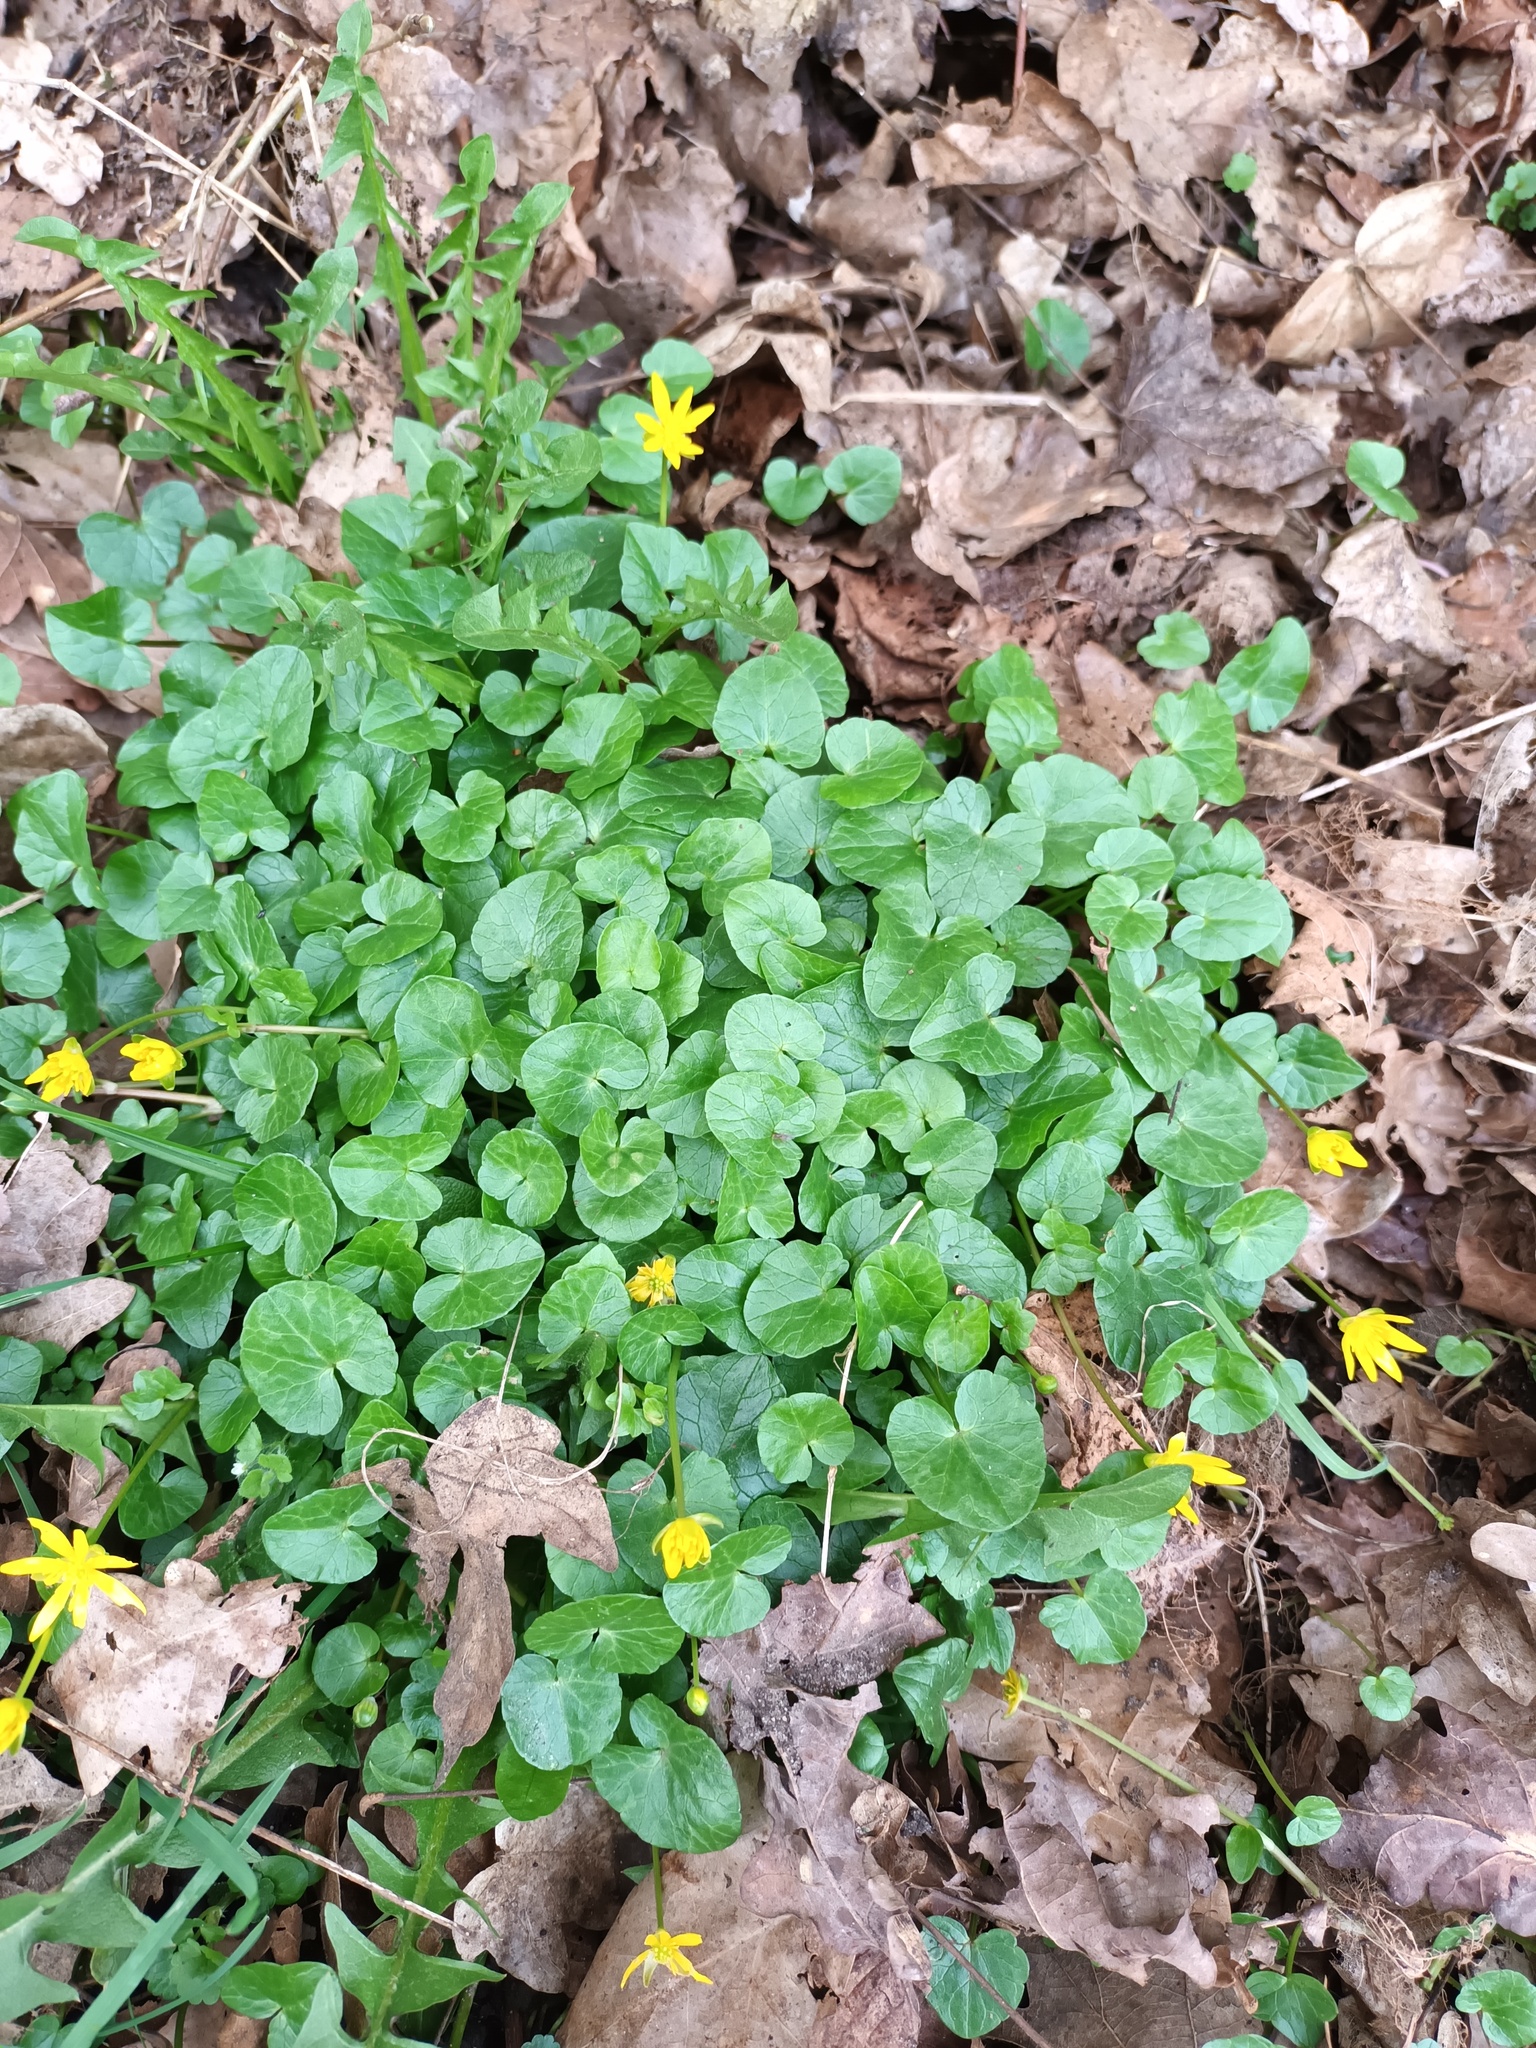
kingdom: Plantae
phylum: Tracheophyta
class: Magnoliopsida
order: Ranunculales
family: Ranunculaceae
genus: Ficaria
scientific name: Ficaria verna
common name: Lesser celandine
